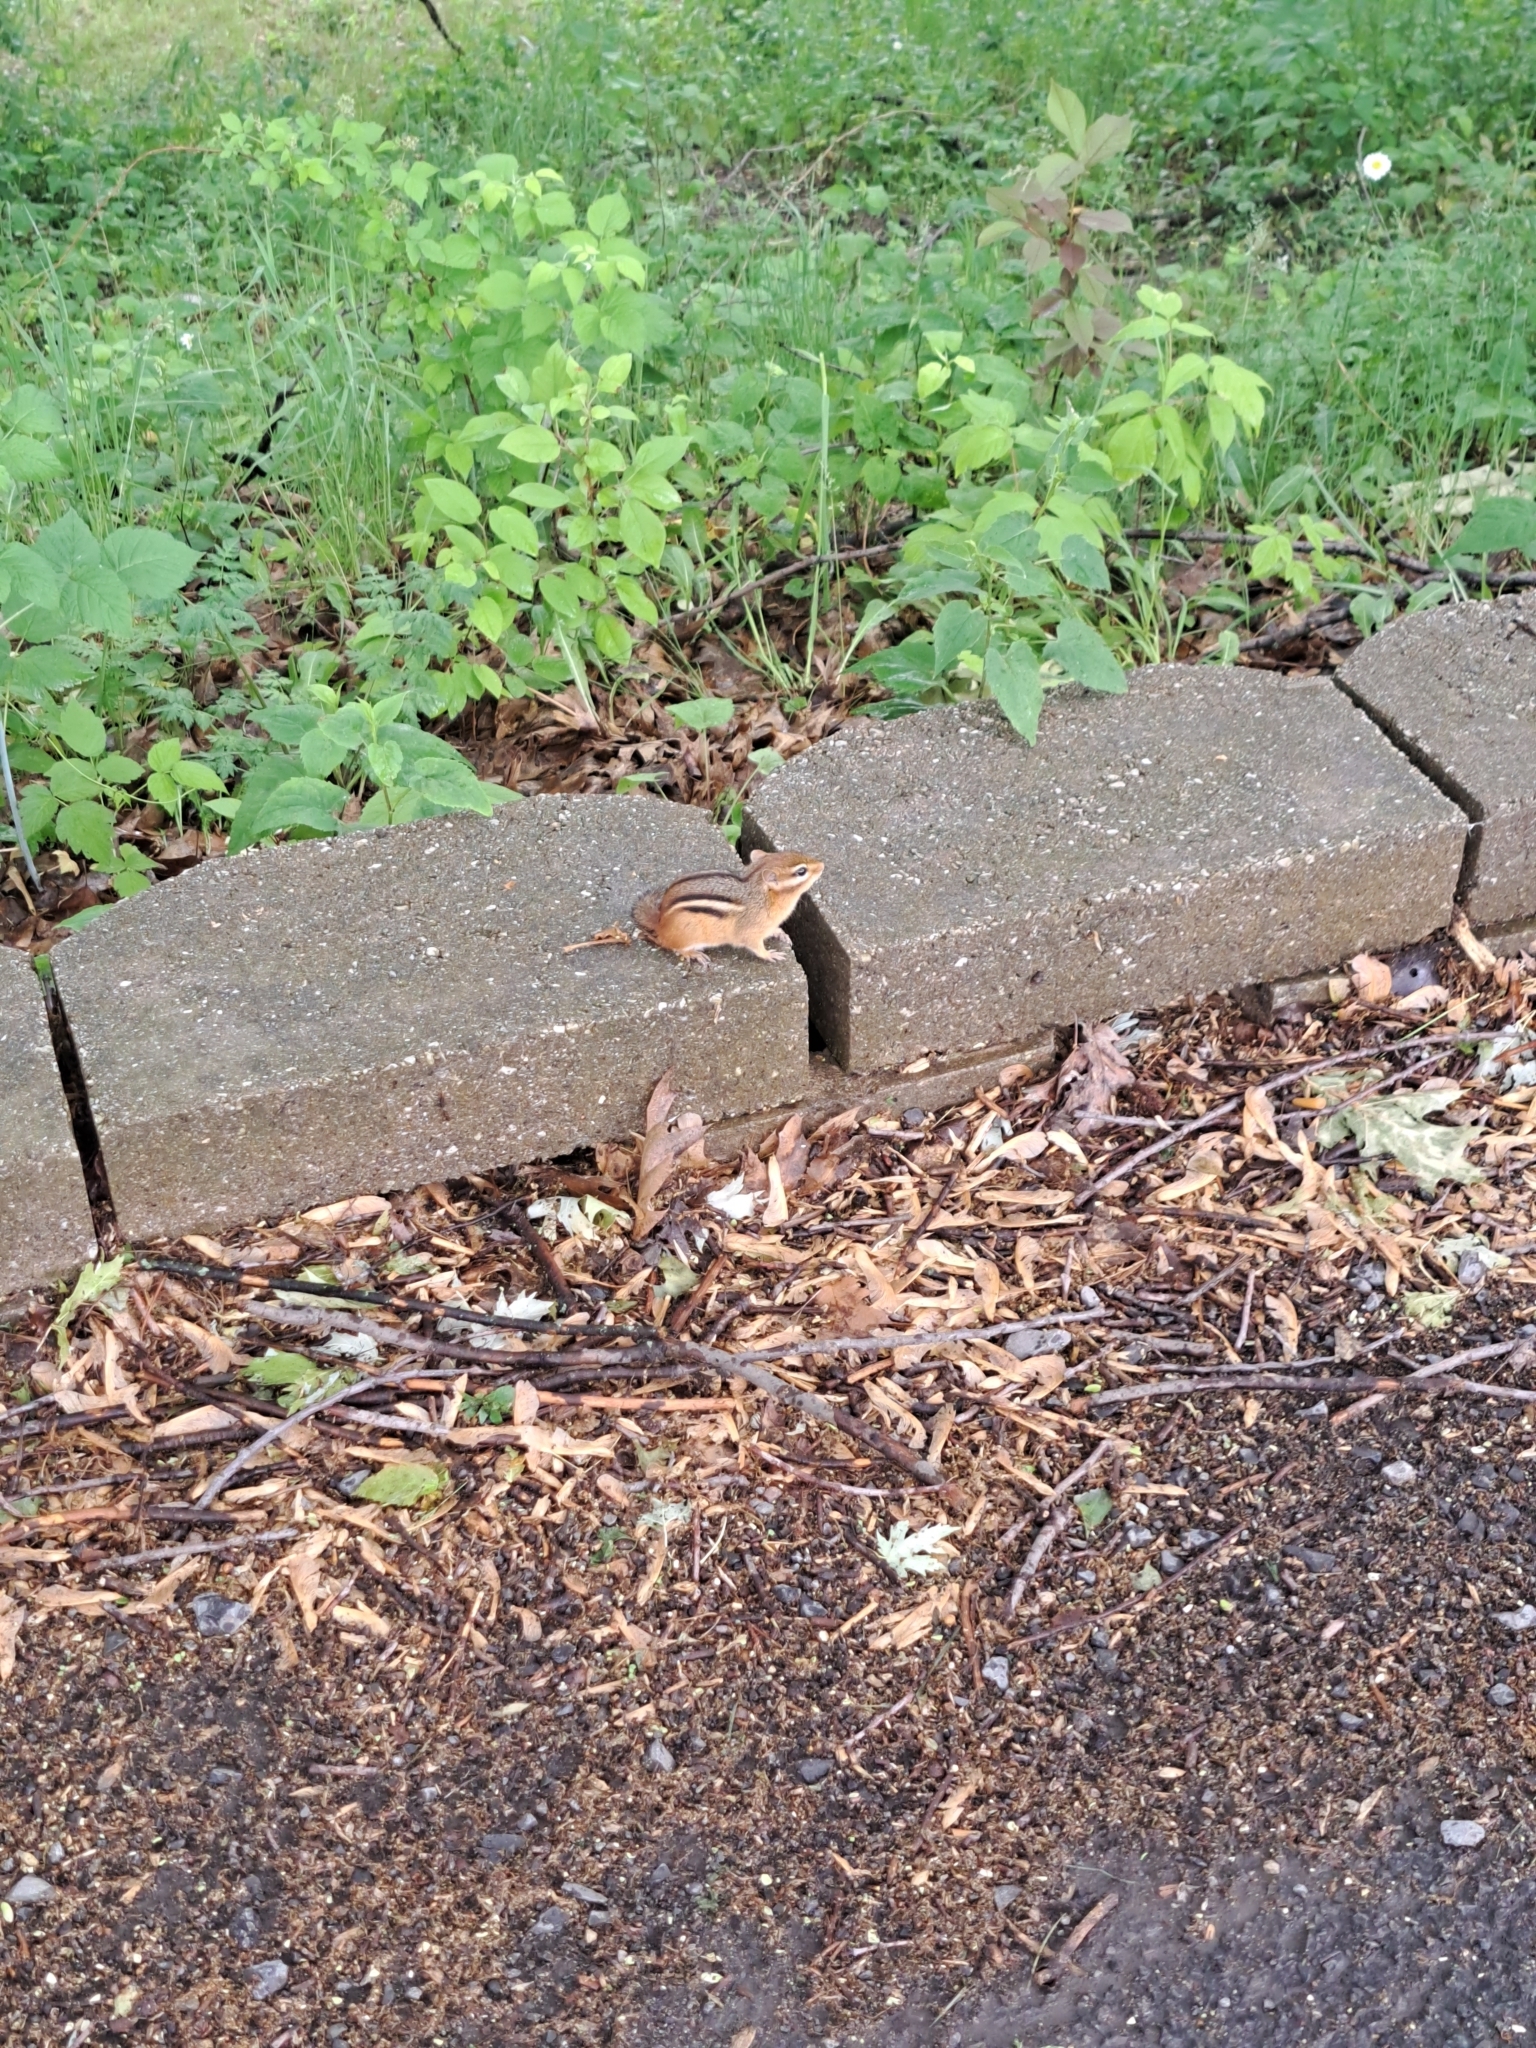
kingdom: Animalia
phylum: Chordata
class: Mammalia
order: Rodentia
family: Sciuridae
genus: Tamias
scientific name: Tamias striatus
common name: Eastern chipmunk
